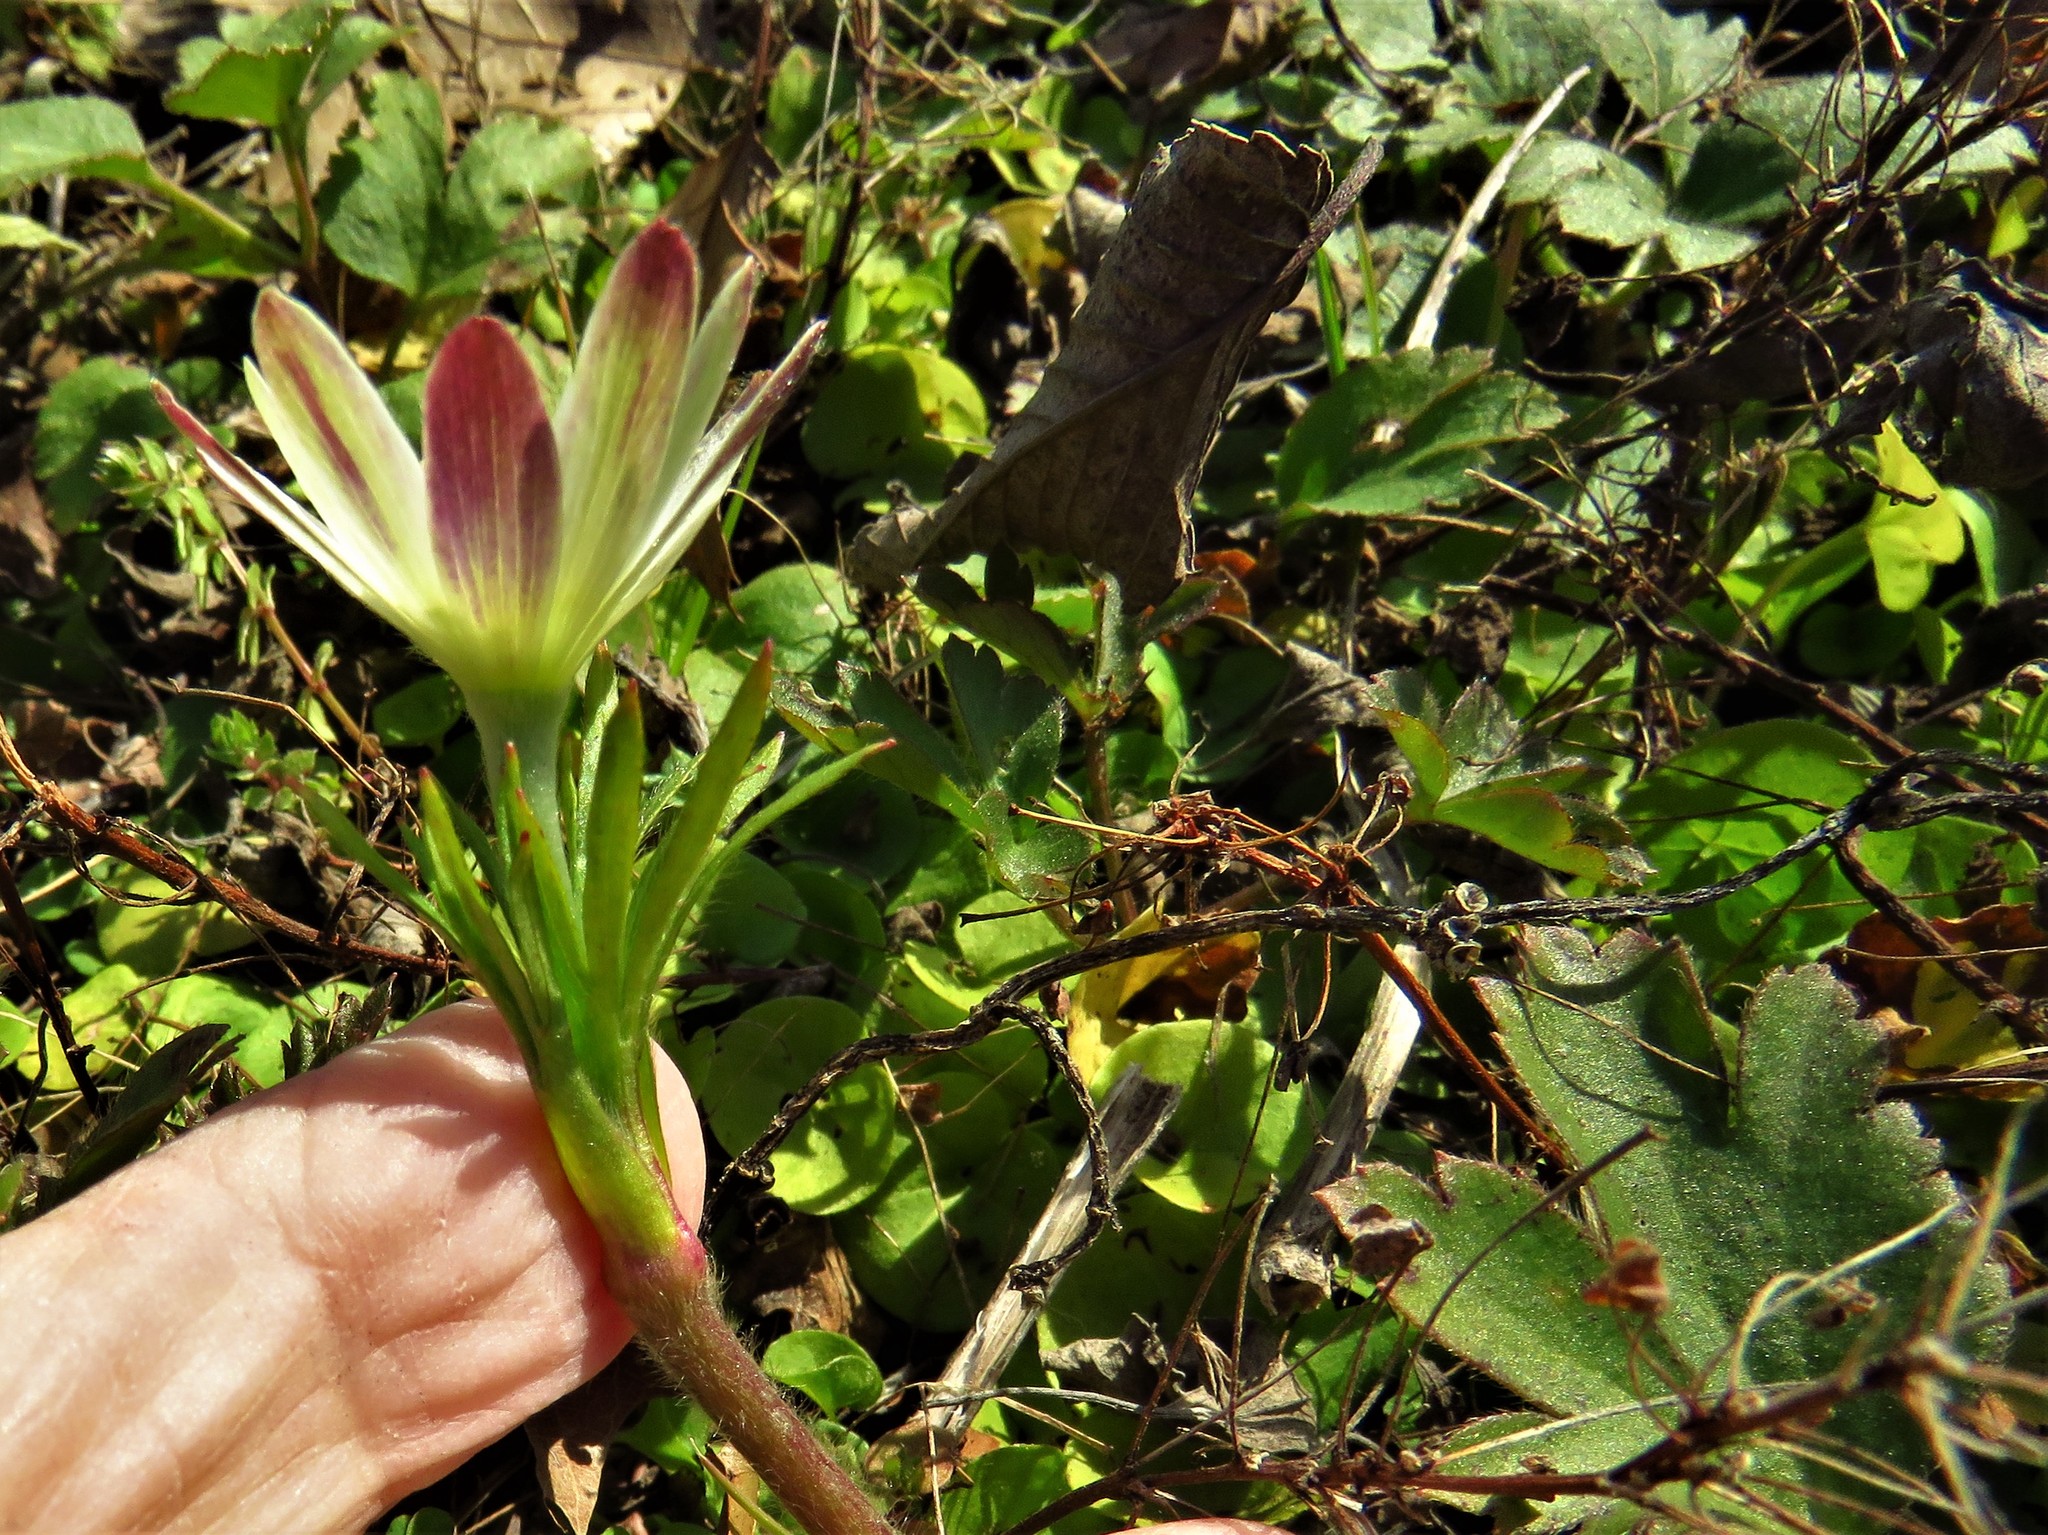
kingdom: Plantae
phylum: Tracheophyta
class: Magnoliopsida
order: Ranunculales
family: Ranunculaceae
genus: Anemone
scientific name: Anemone berlandieri
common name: Ten-petal anemone
